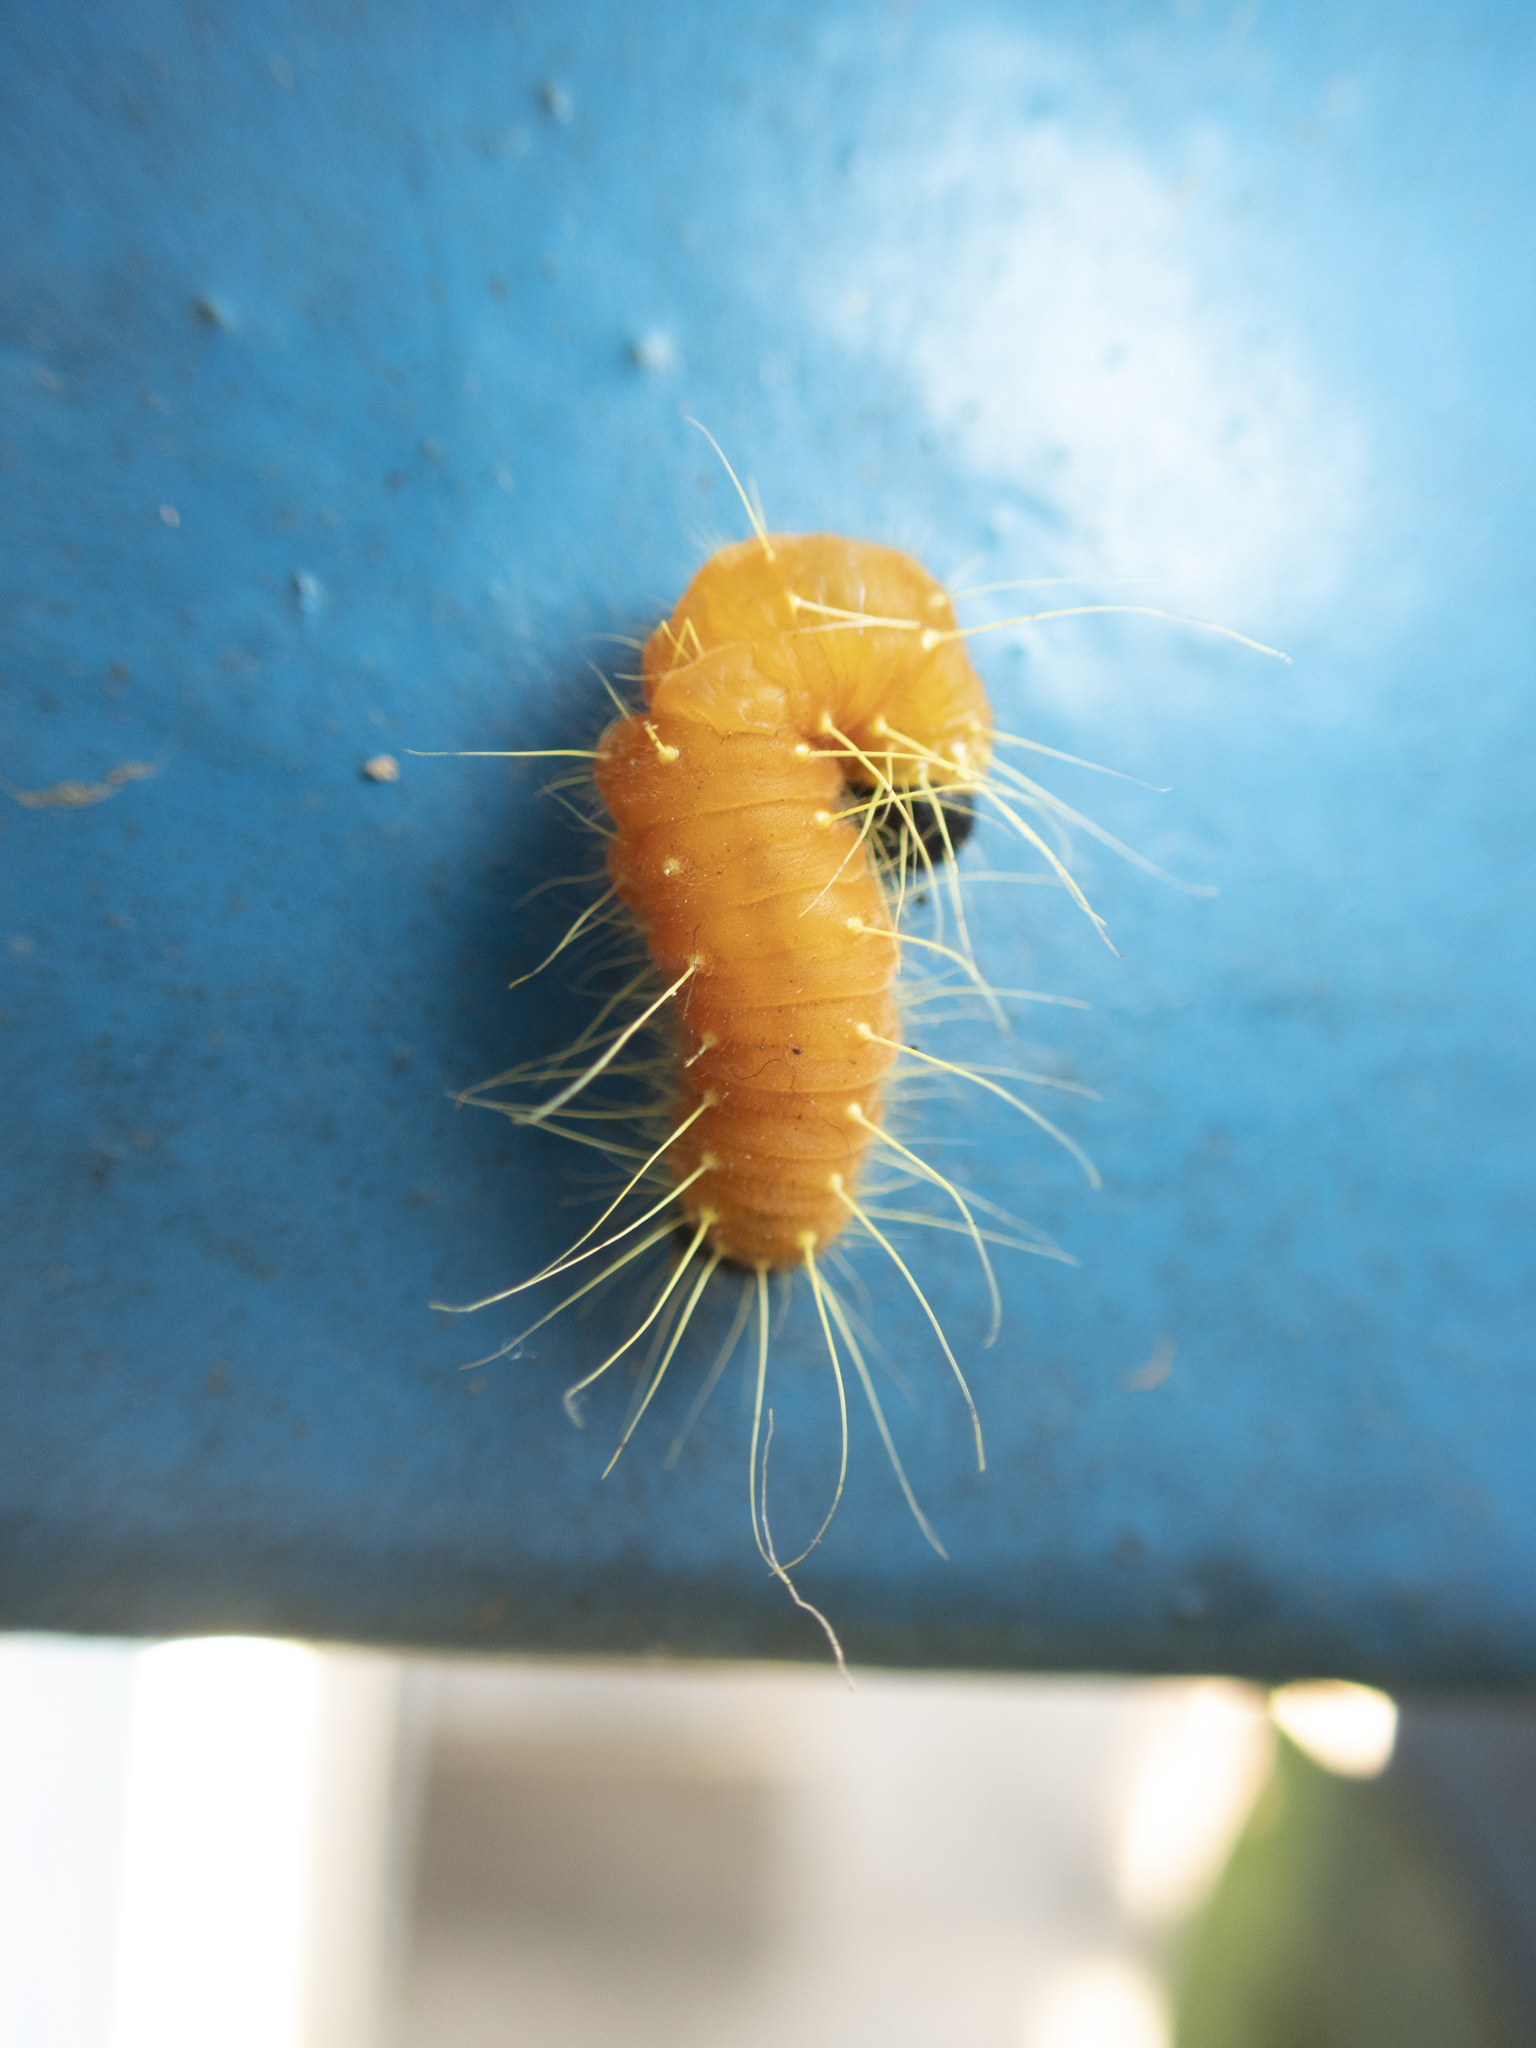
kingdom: Animalia
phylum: Arthropoda
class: Insecta
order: Lepidoptera
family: Pieridae
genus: Delias
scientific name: Delias hyparete
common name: Painted jezebel
